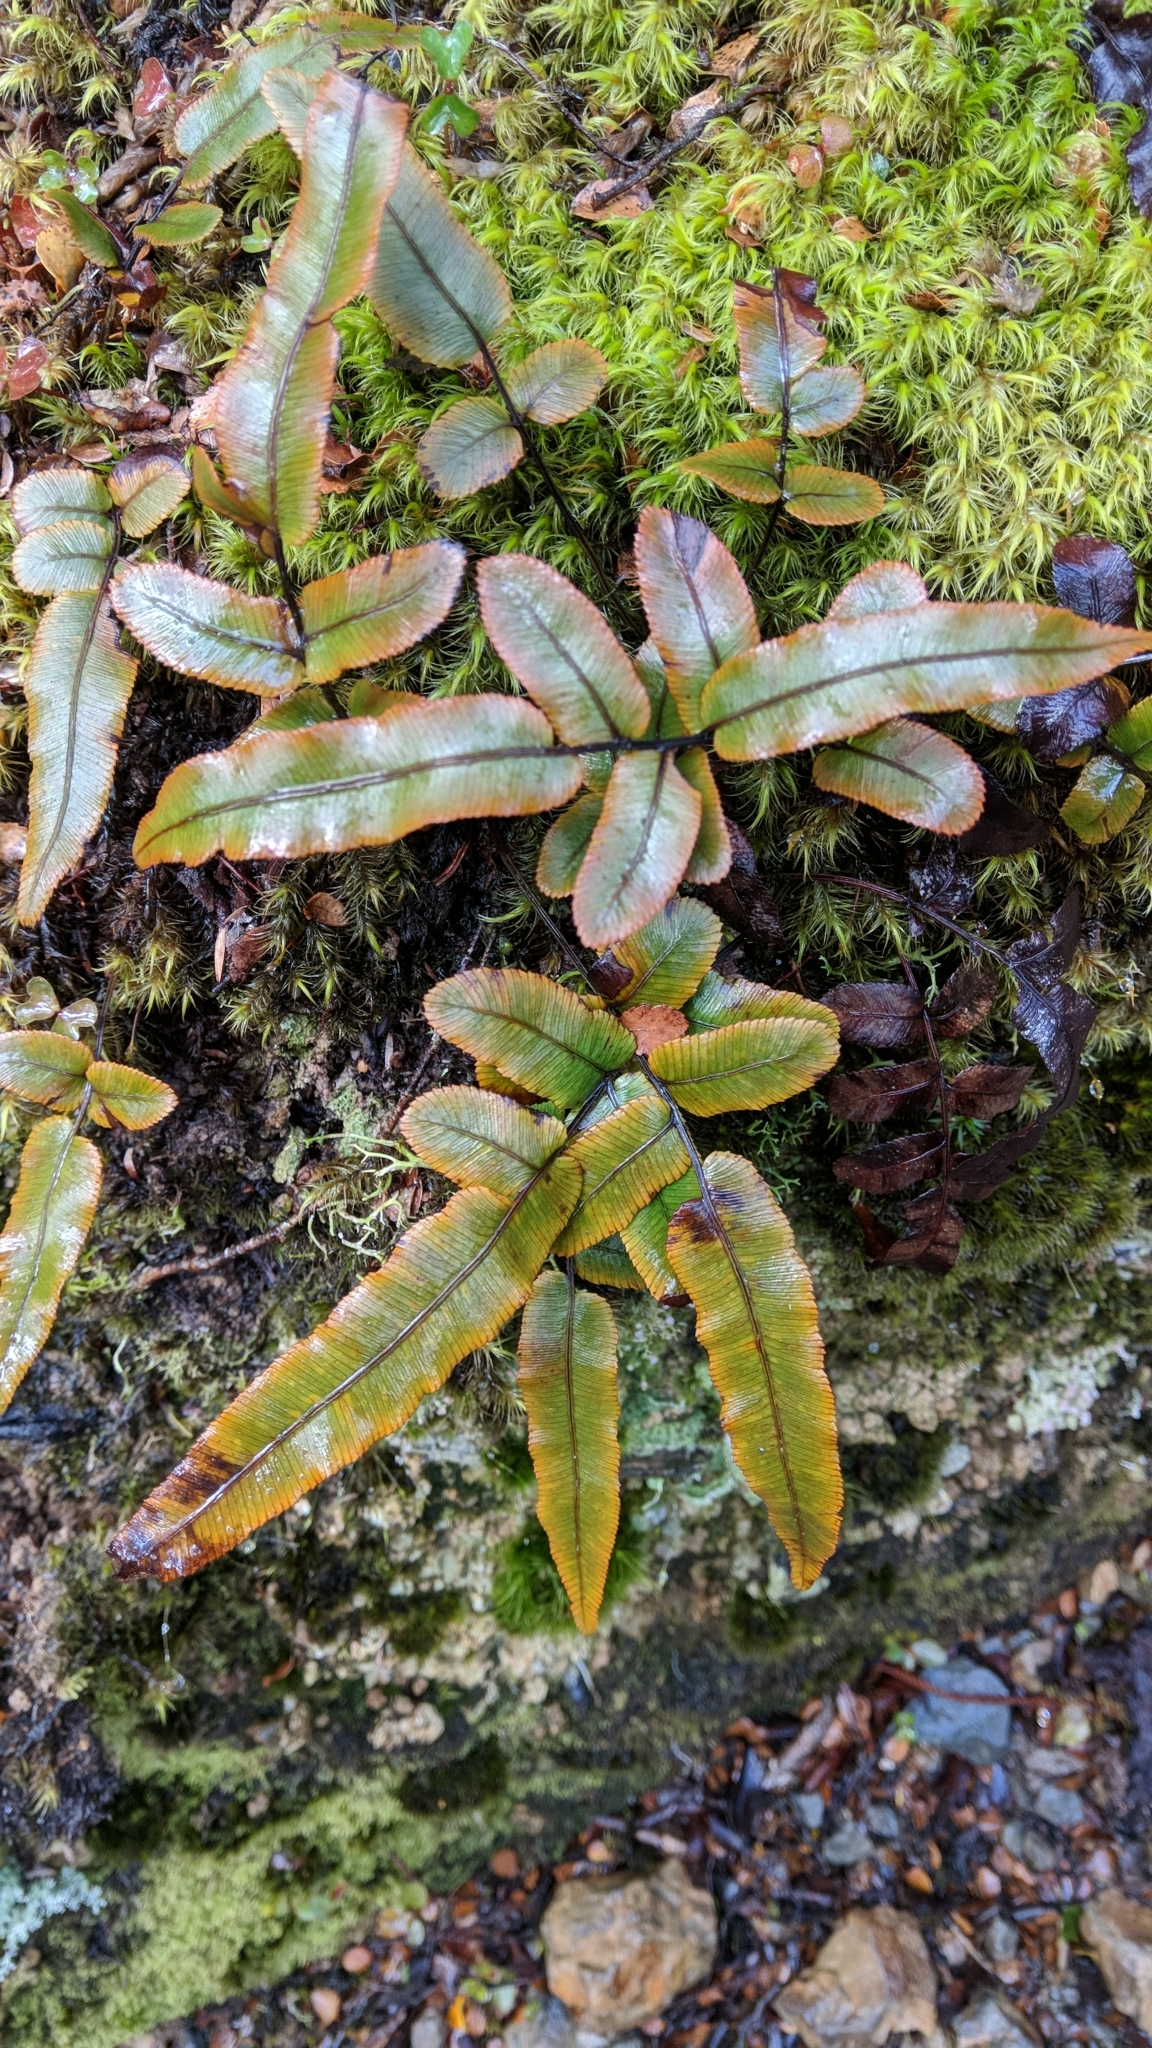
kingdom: Plantae
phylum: Tracheophyta
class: Polypodiopsida
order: Polypodiales
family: Blechnaceae
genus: Parablechnum
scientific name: Parablechnum procerum
